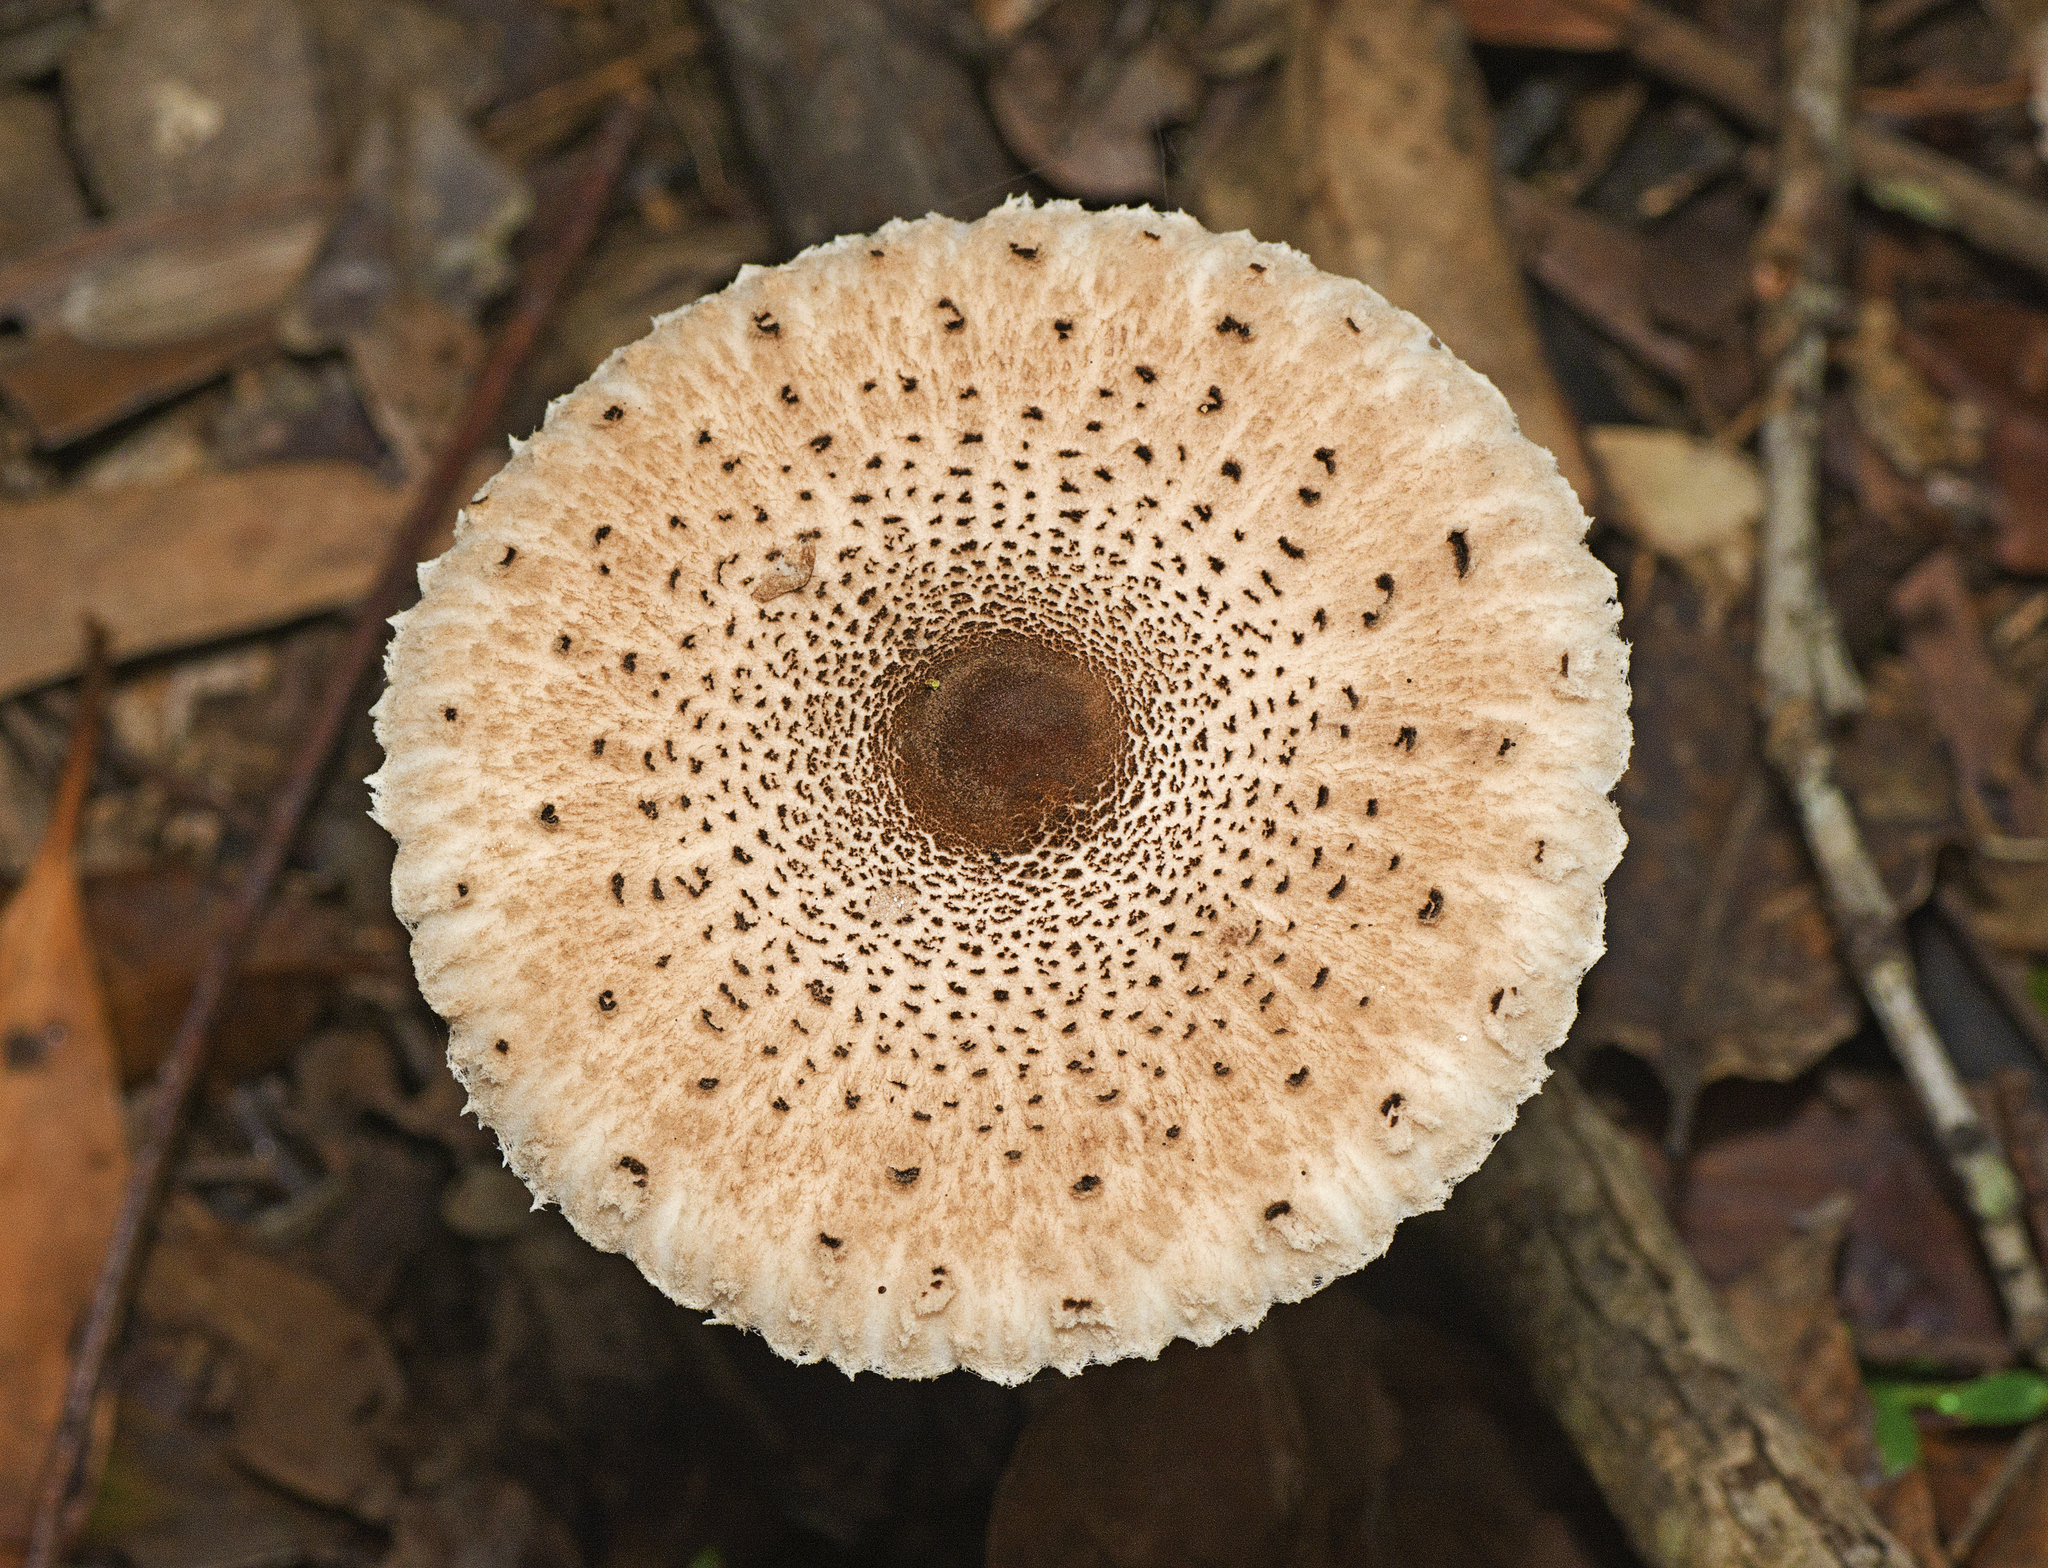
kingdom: Fungi
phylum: Basidiomycota
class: Agaricomycetes
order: Agaricales
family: Agaricaceae
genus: Macrolepiota
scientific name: Macrolepiota clelandii
